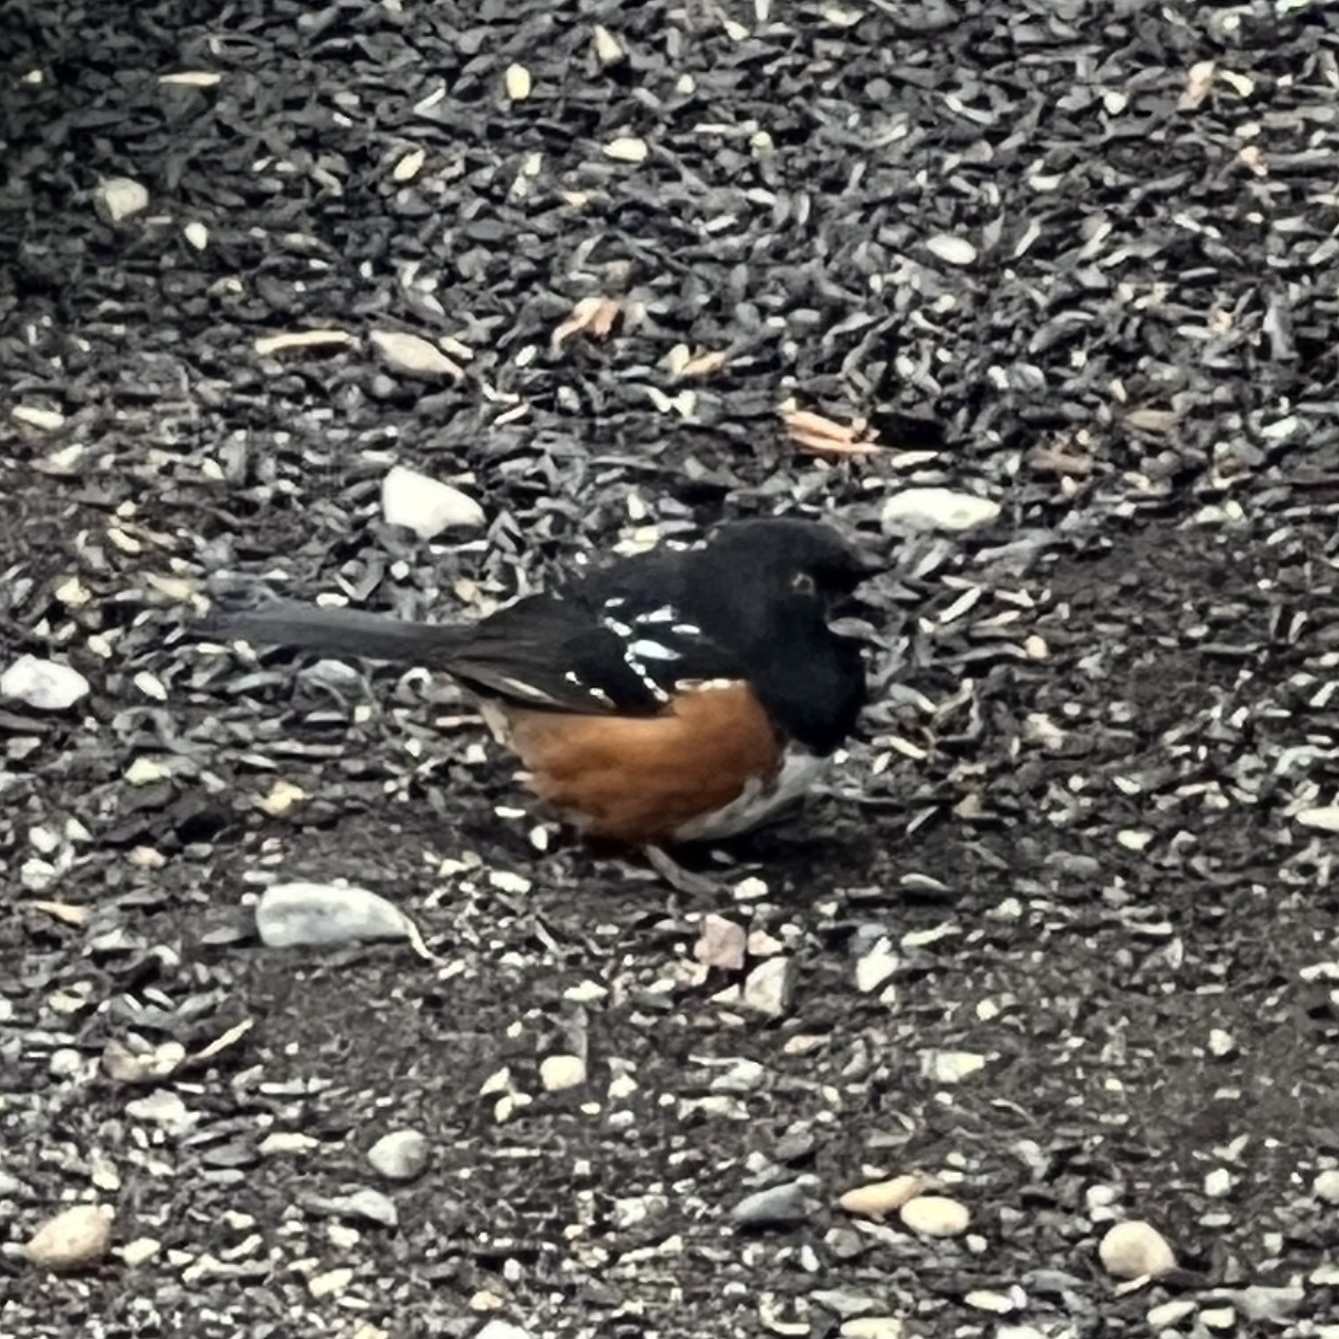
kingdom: Animalia
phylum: Chordata
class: Aves
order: Passeriformes
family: Passerellidae
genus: Pipilo
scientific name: Pipilo maculatus
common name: Spotted towhee
